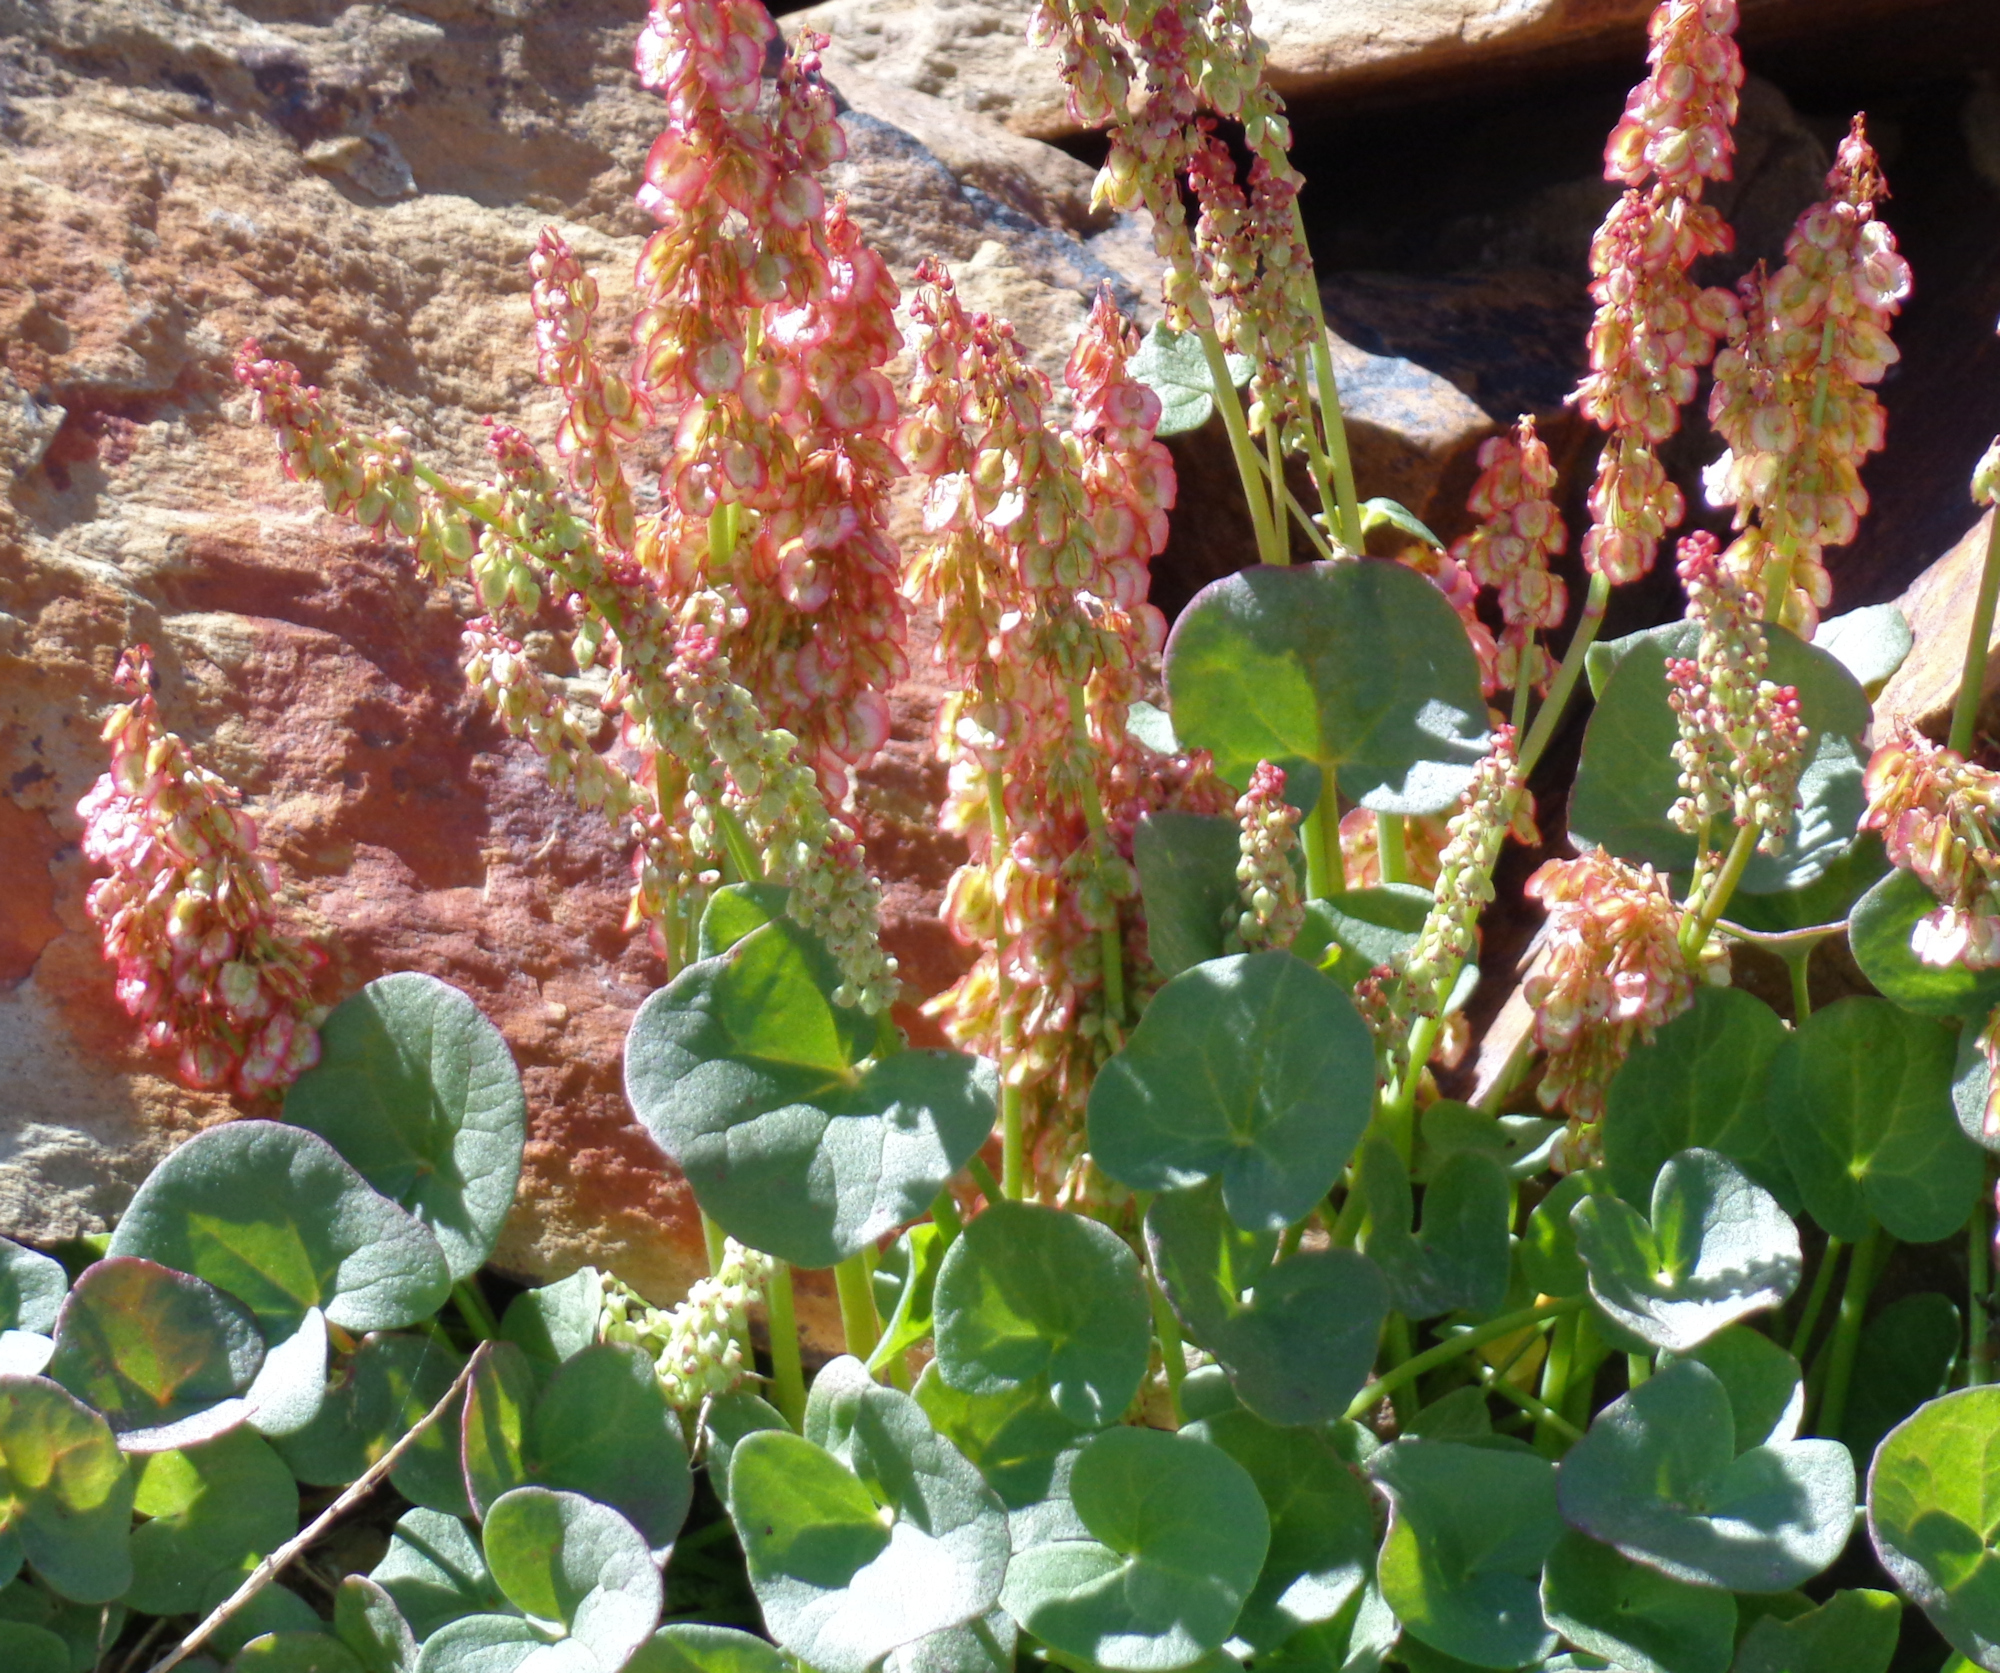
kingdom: Plantae
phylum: Tracheophyta
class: Magnoliopsida
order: Caryophyllales
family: Polygonaceae
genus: Oxyria
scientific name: Oxyria digyna
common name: Alpine mountain-sorrel
